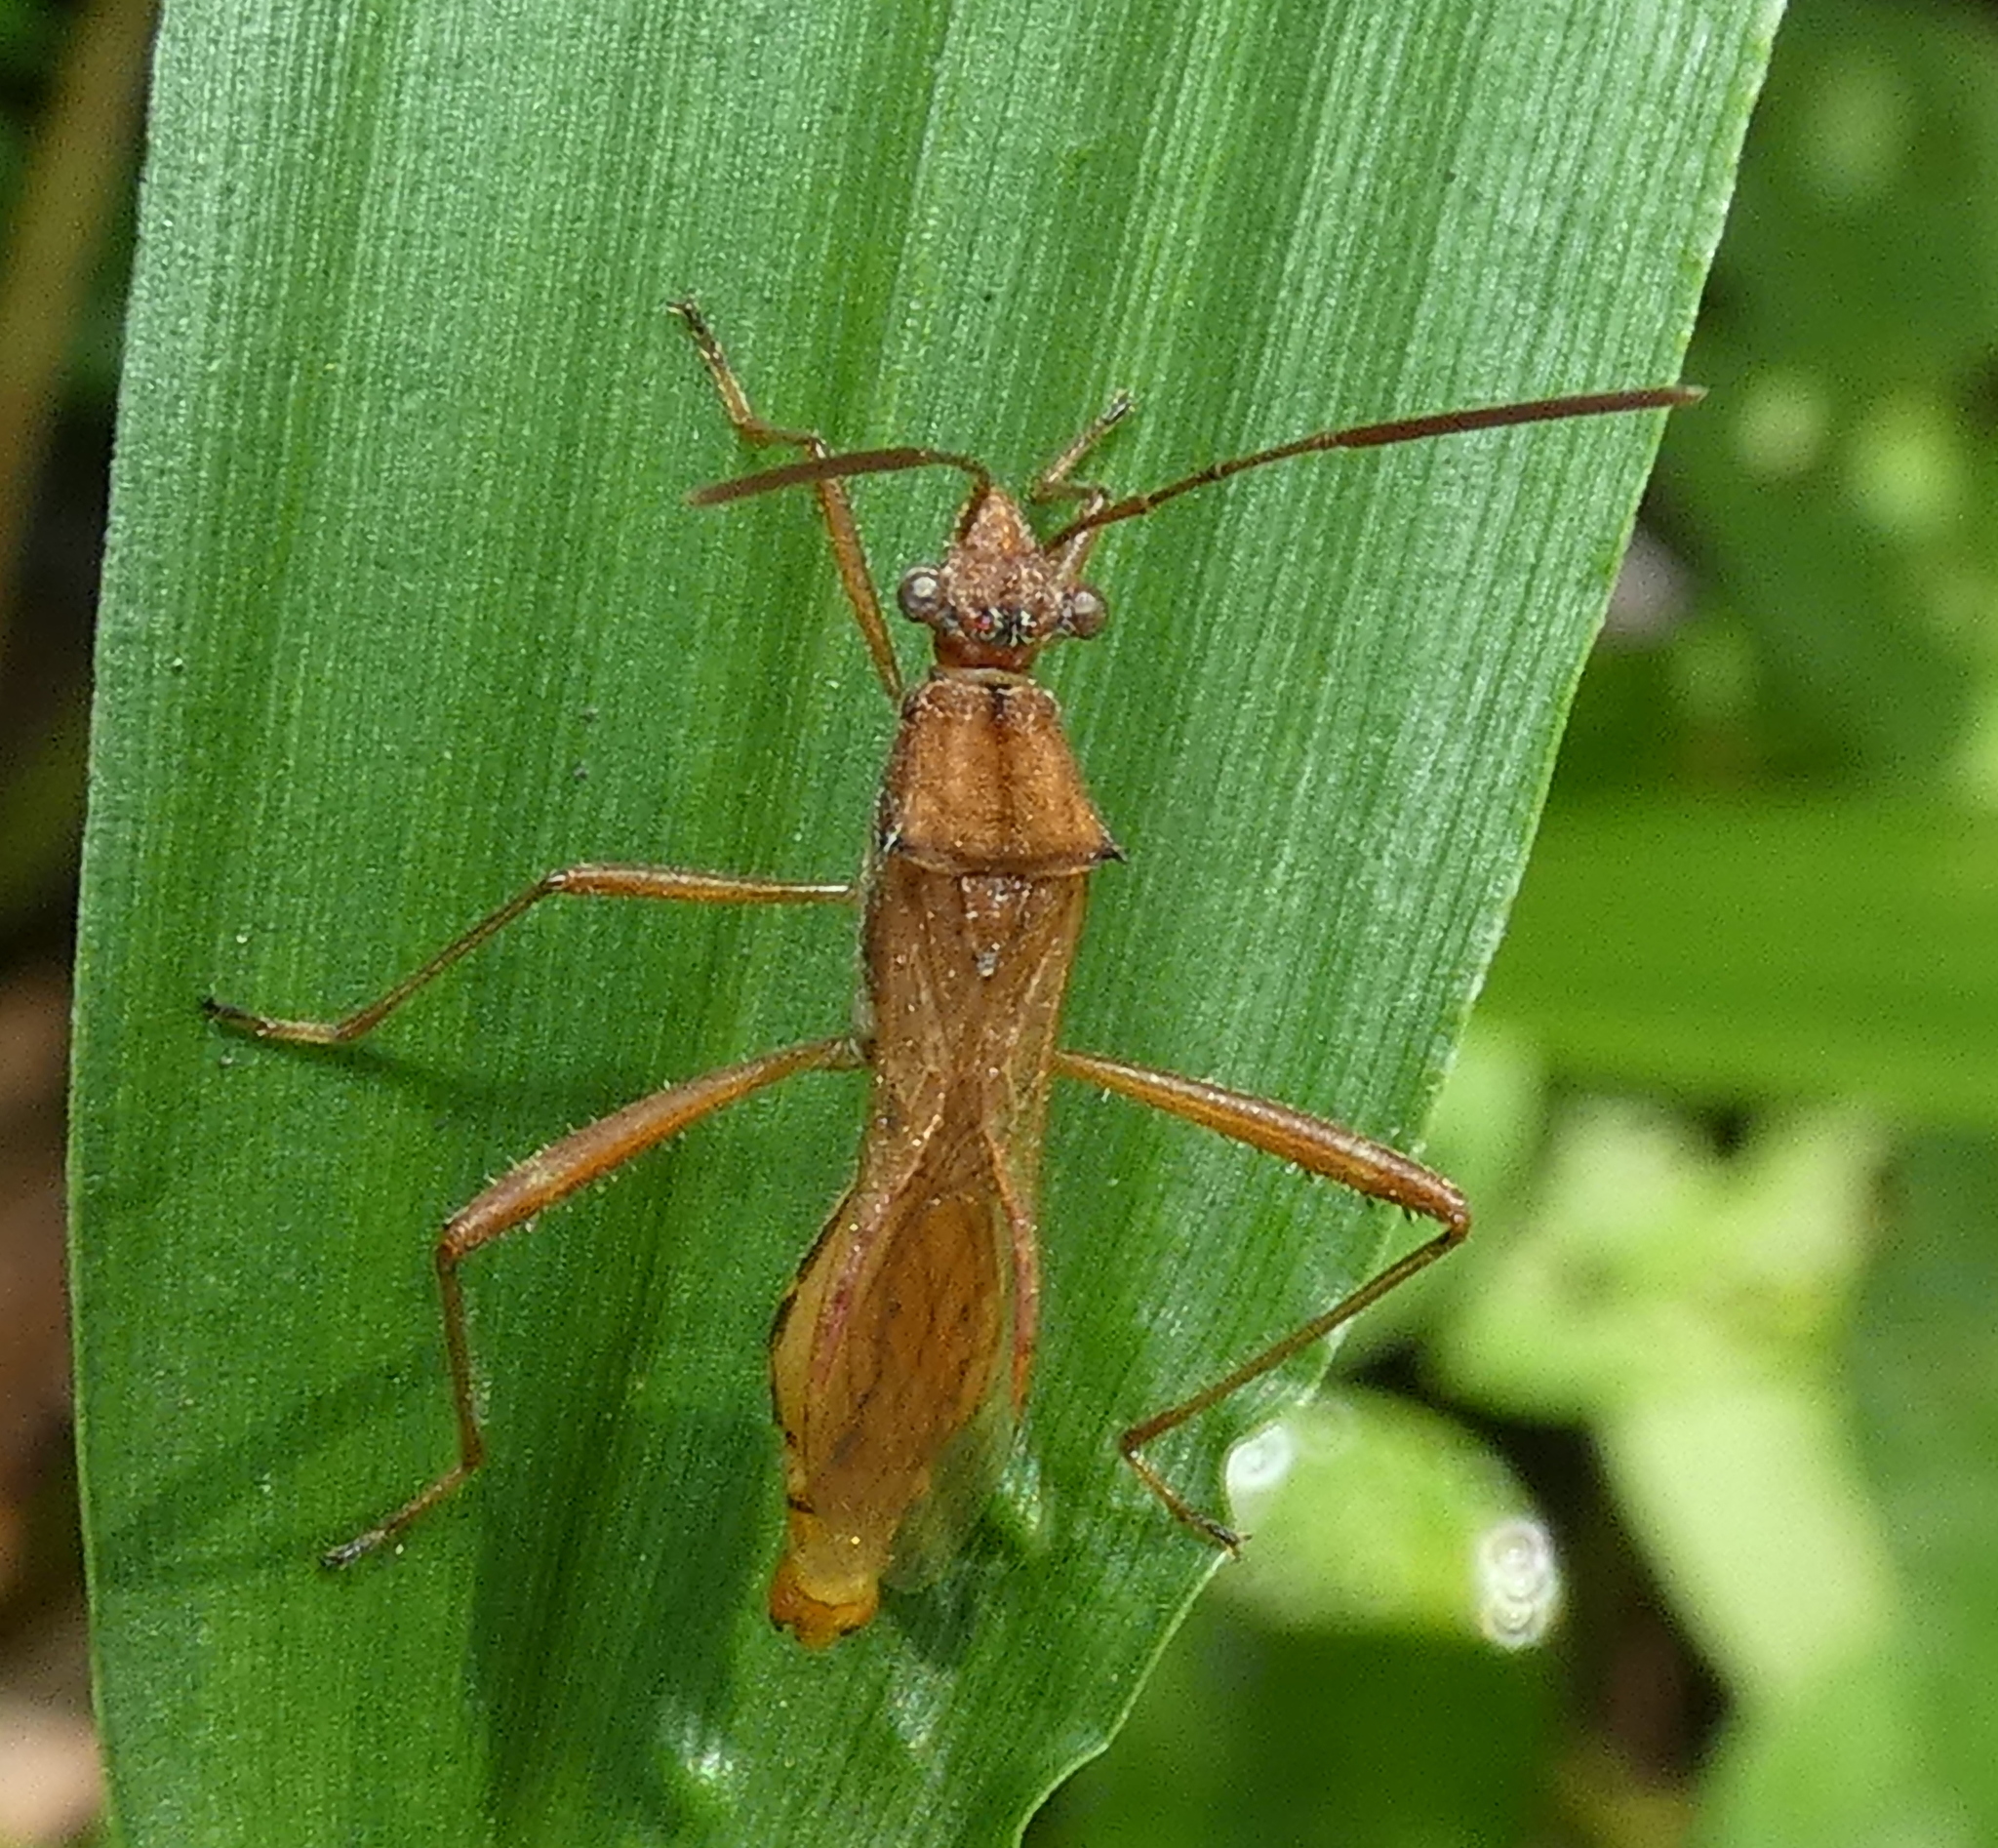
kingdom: Animalia
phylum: Arthropoda
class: Insecta
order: Hemiptera
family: Alydidae
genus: Neomegalotomus
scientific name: Neomegalotomus parvus
